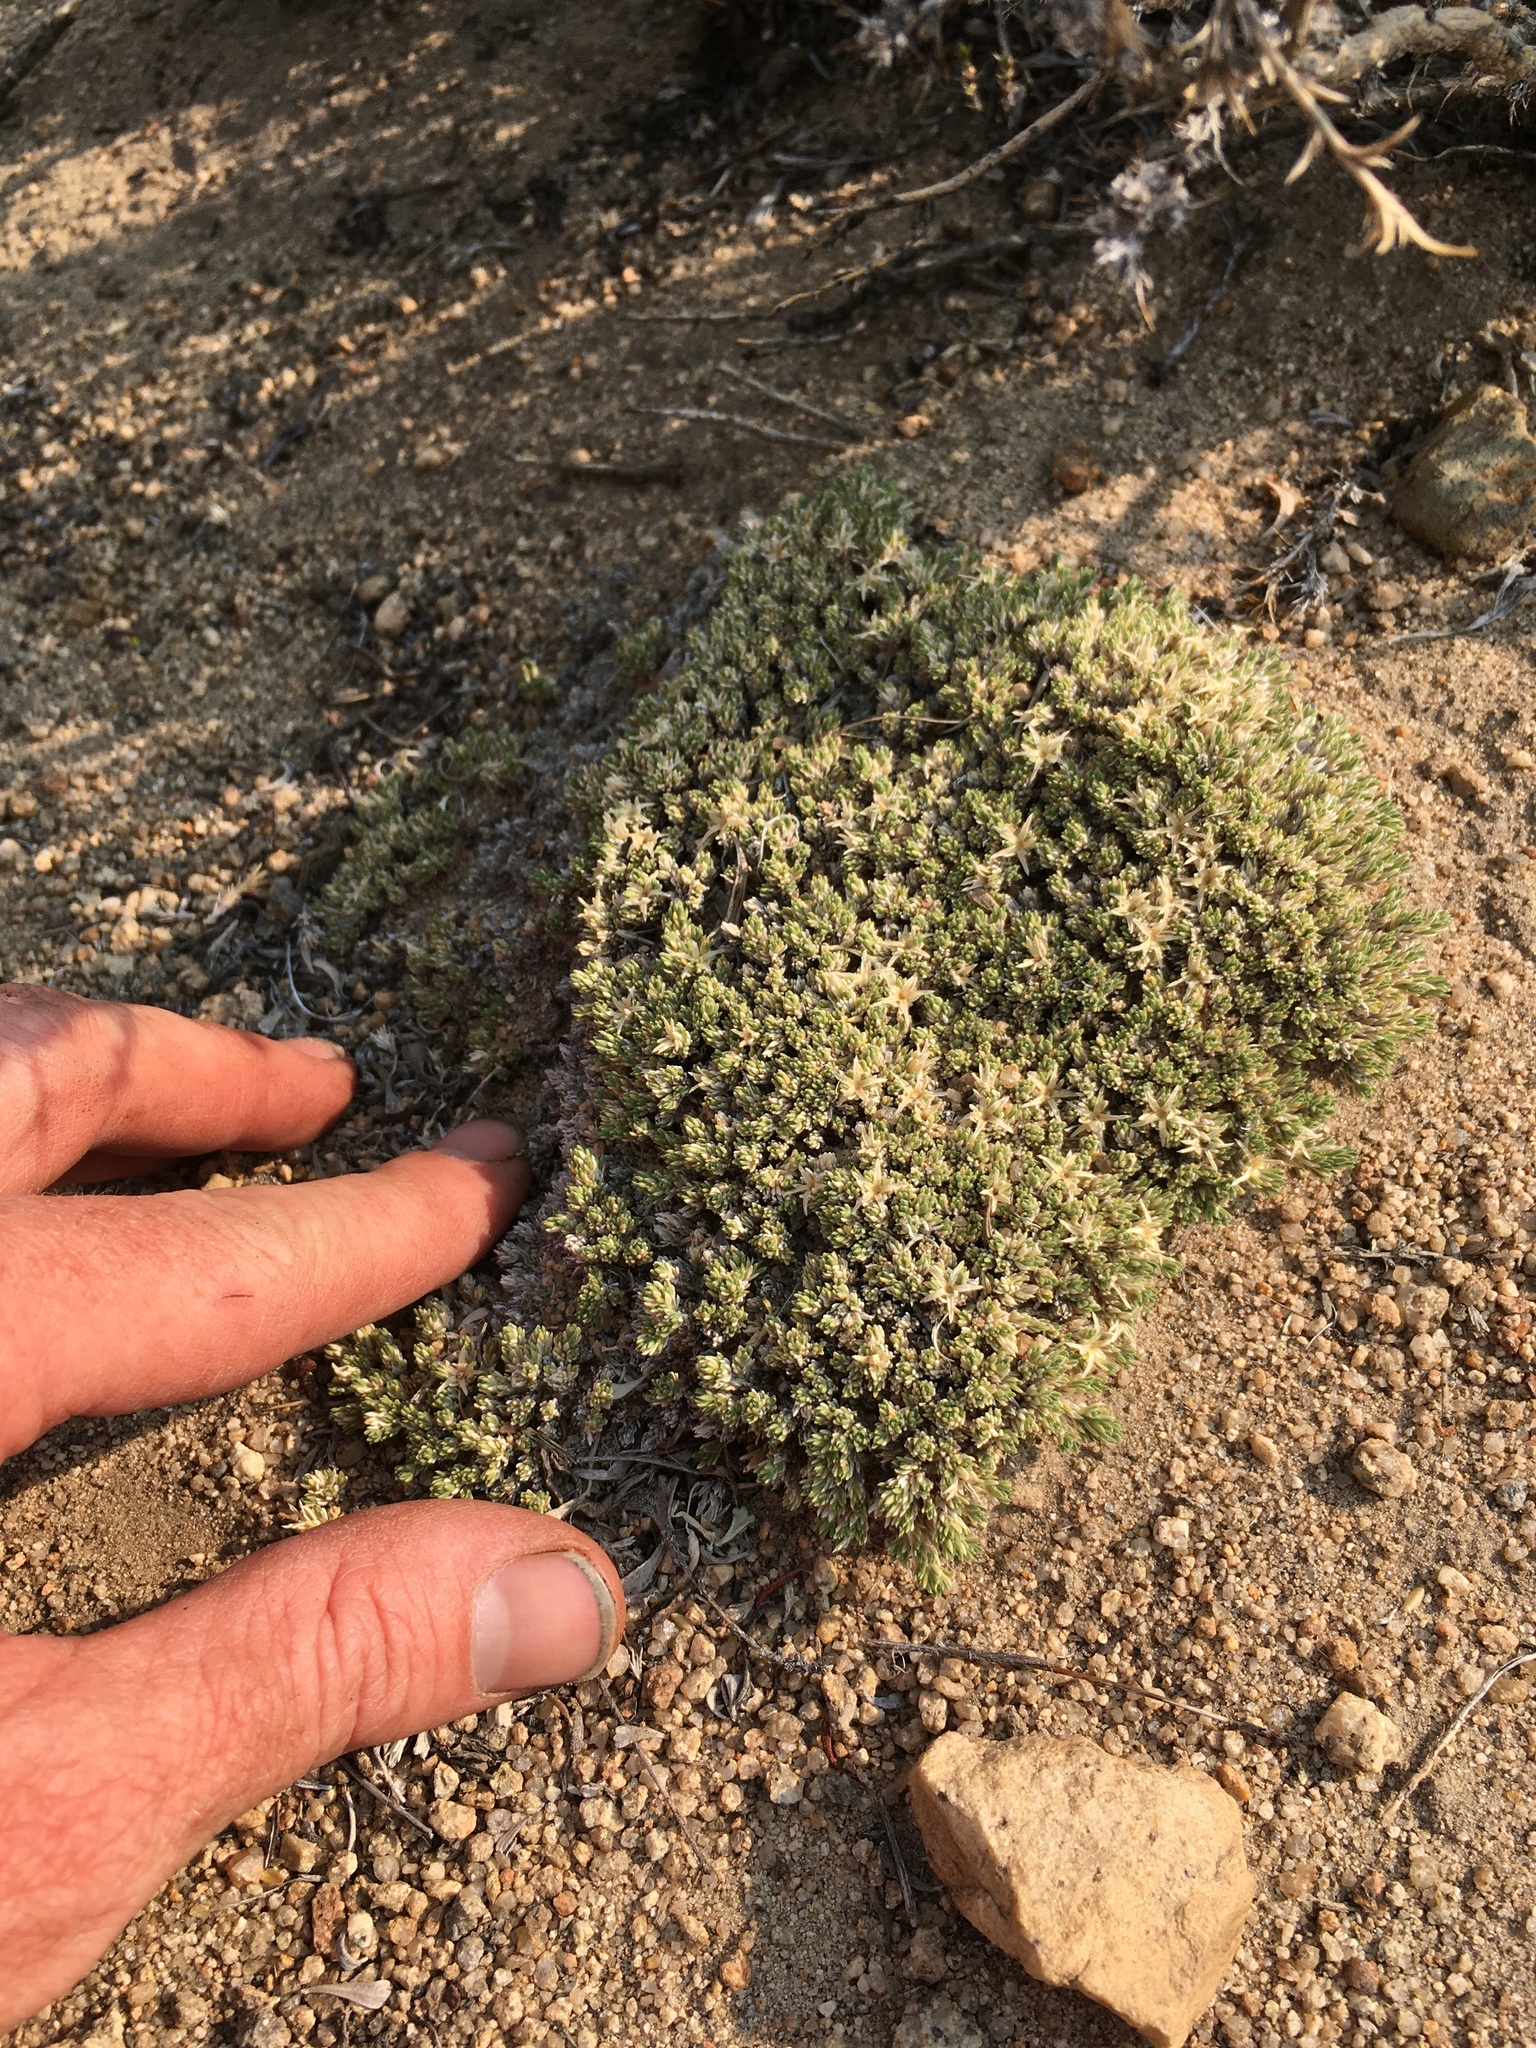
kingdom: Plantae
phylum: Tracheophyta
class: Magnoliopsida
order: Ericales
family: Polemoniaceae
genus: Phlox
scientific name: Phlox condensata
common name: Compact phlox
